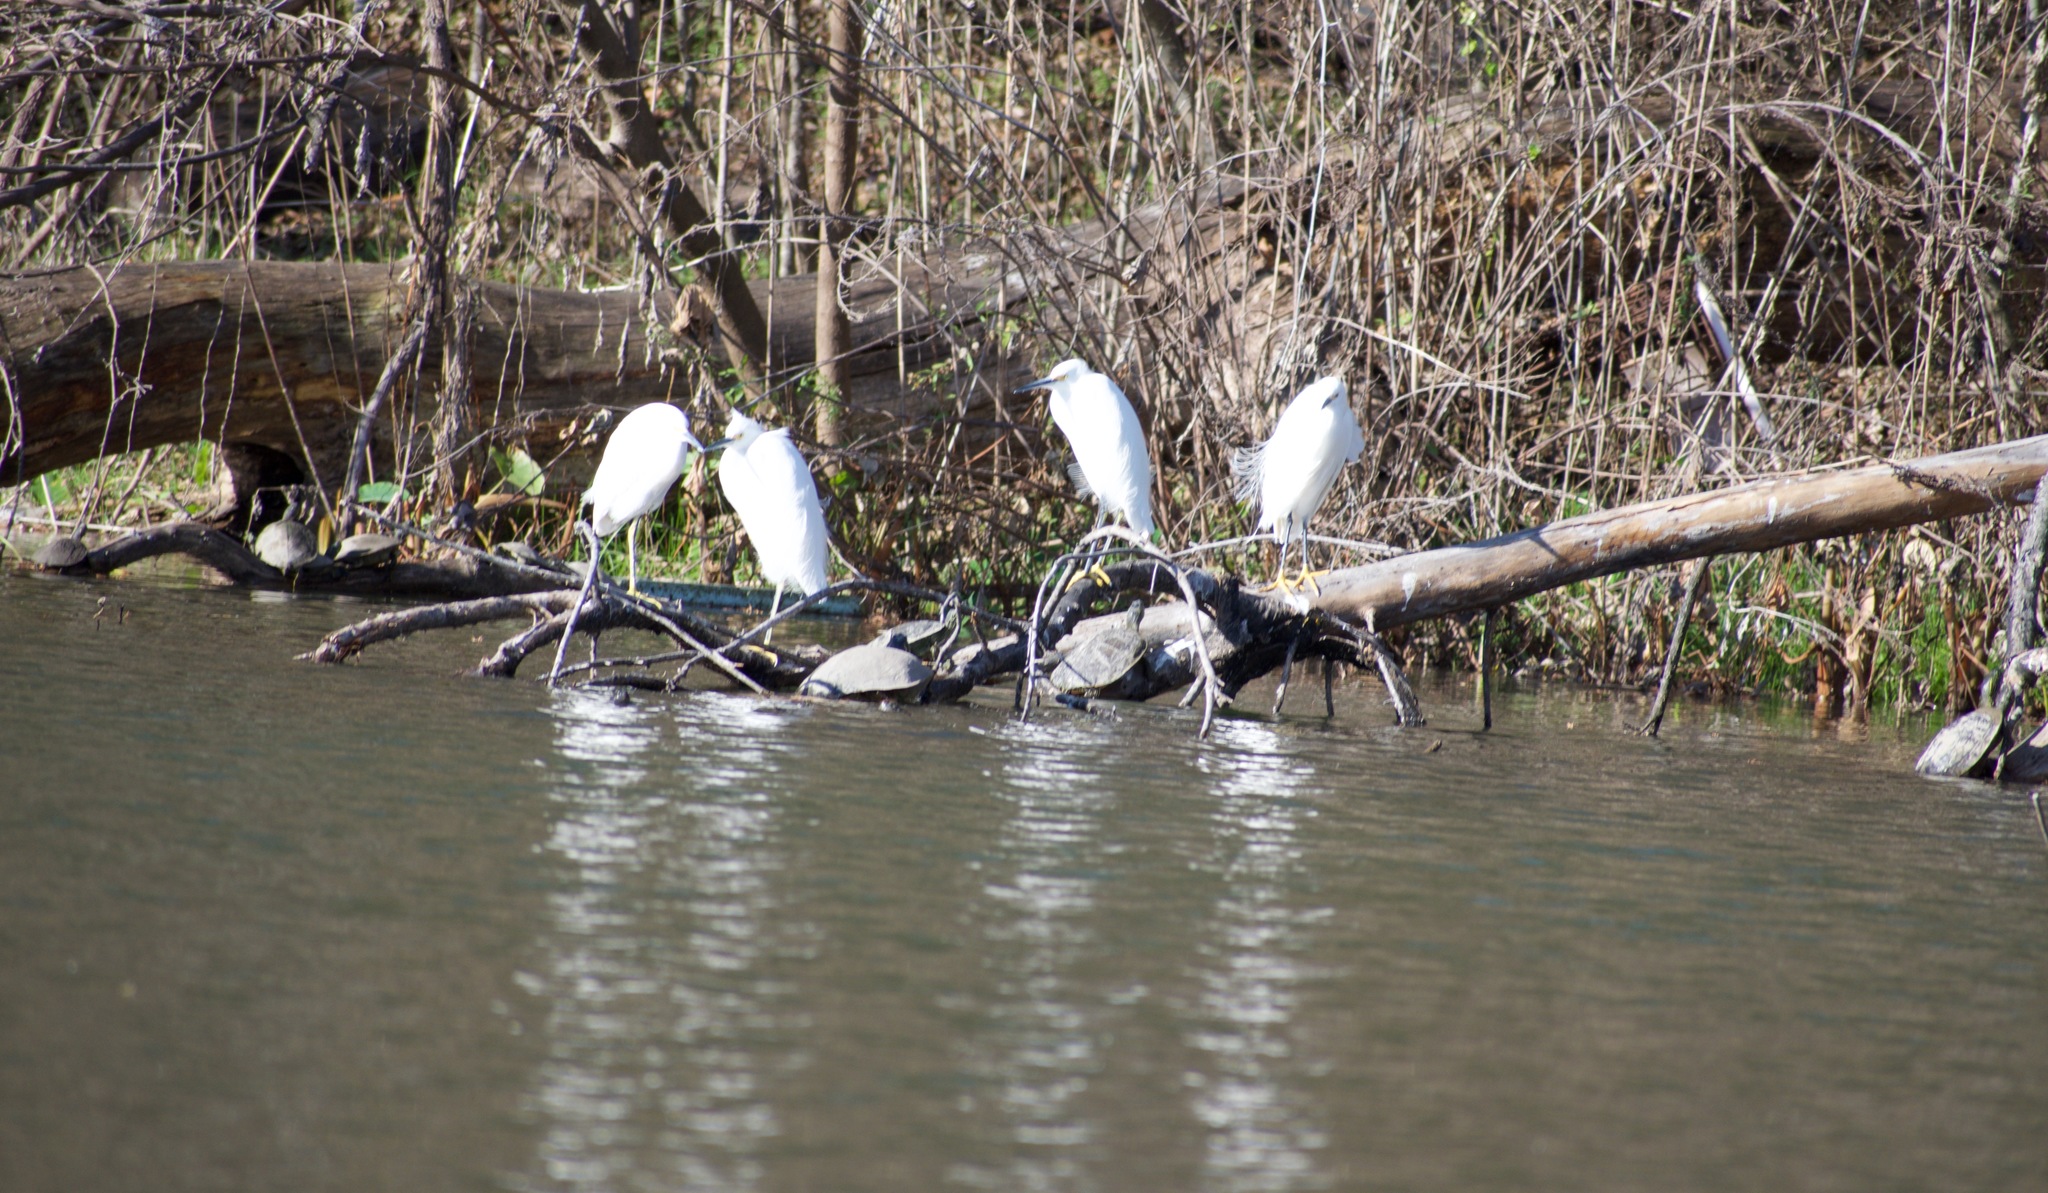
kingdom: Animalia
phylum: Chordata
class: Aves
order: Pelecaniformes
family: Ardeidae
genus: Egretta
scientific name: Egretta thula
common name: Snowy egret
